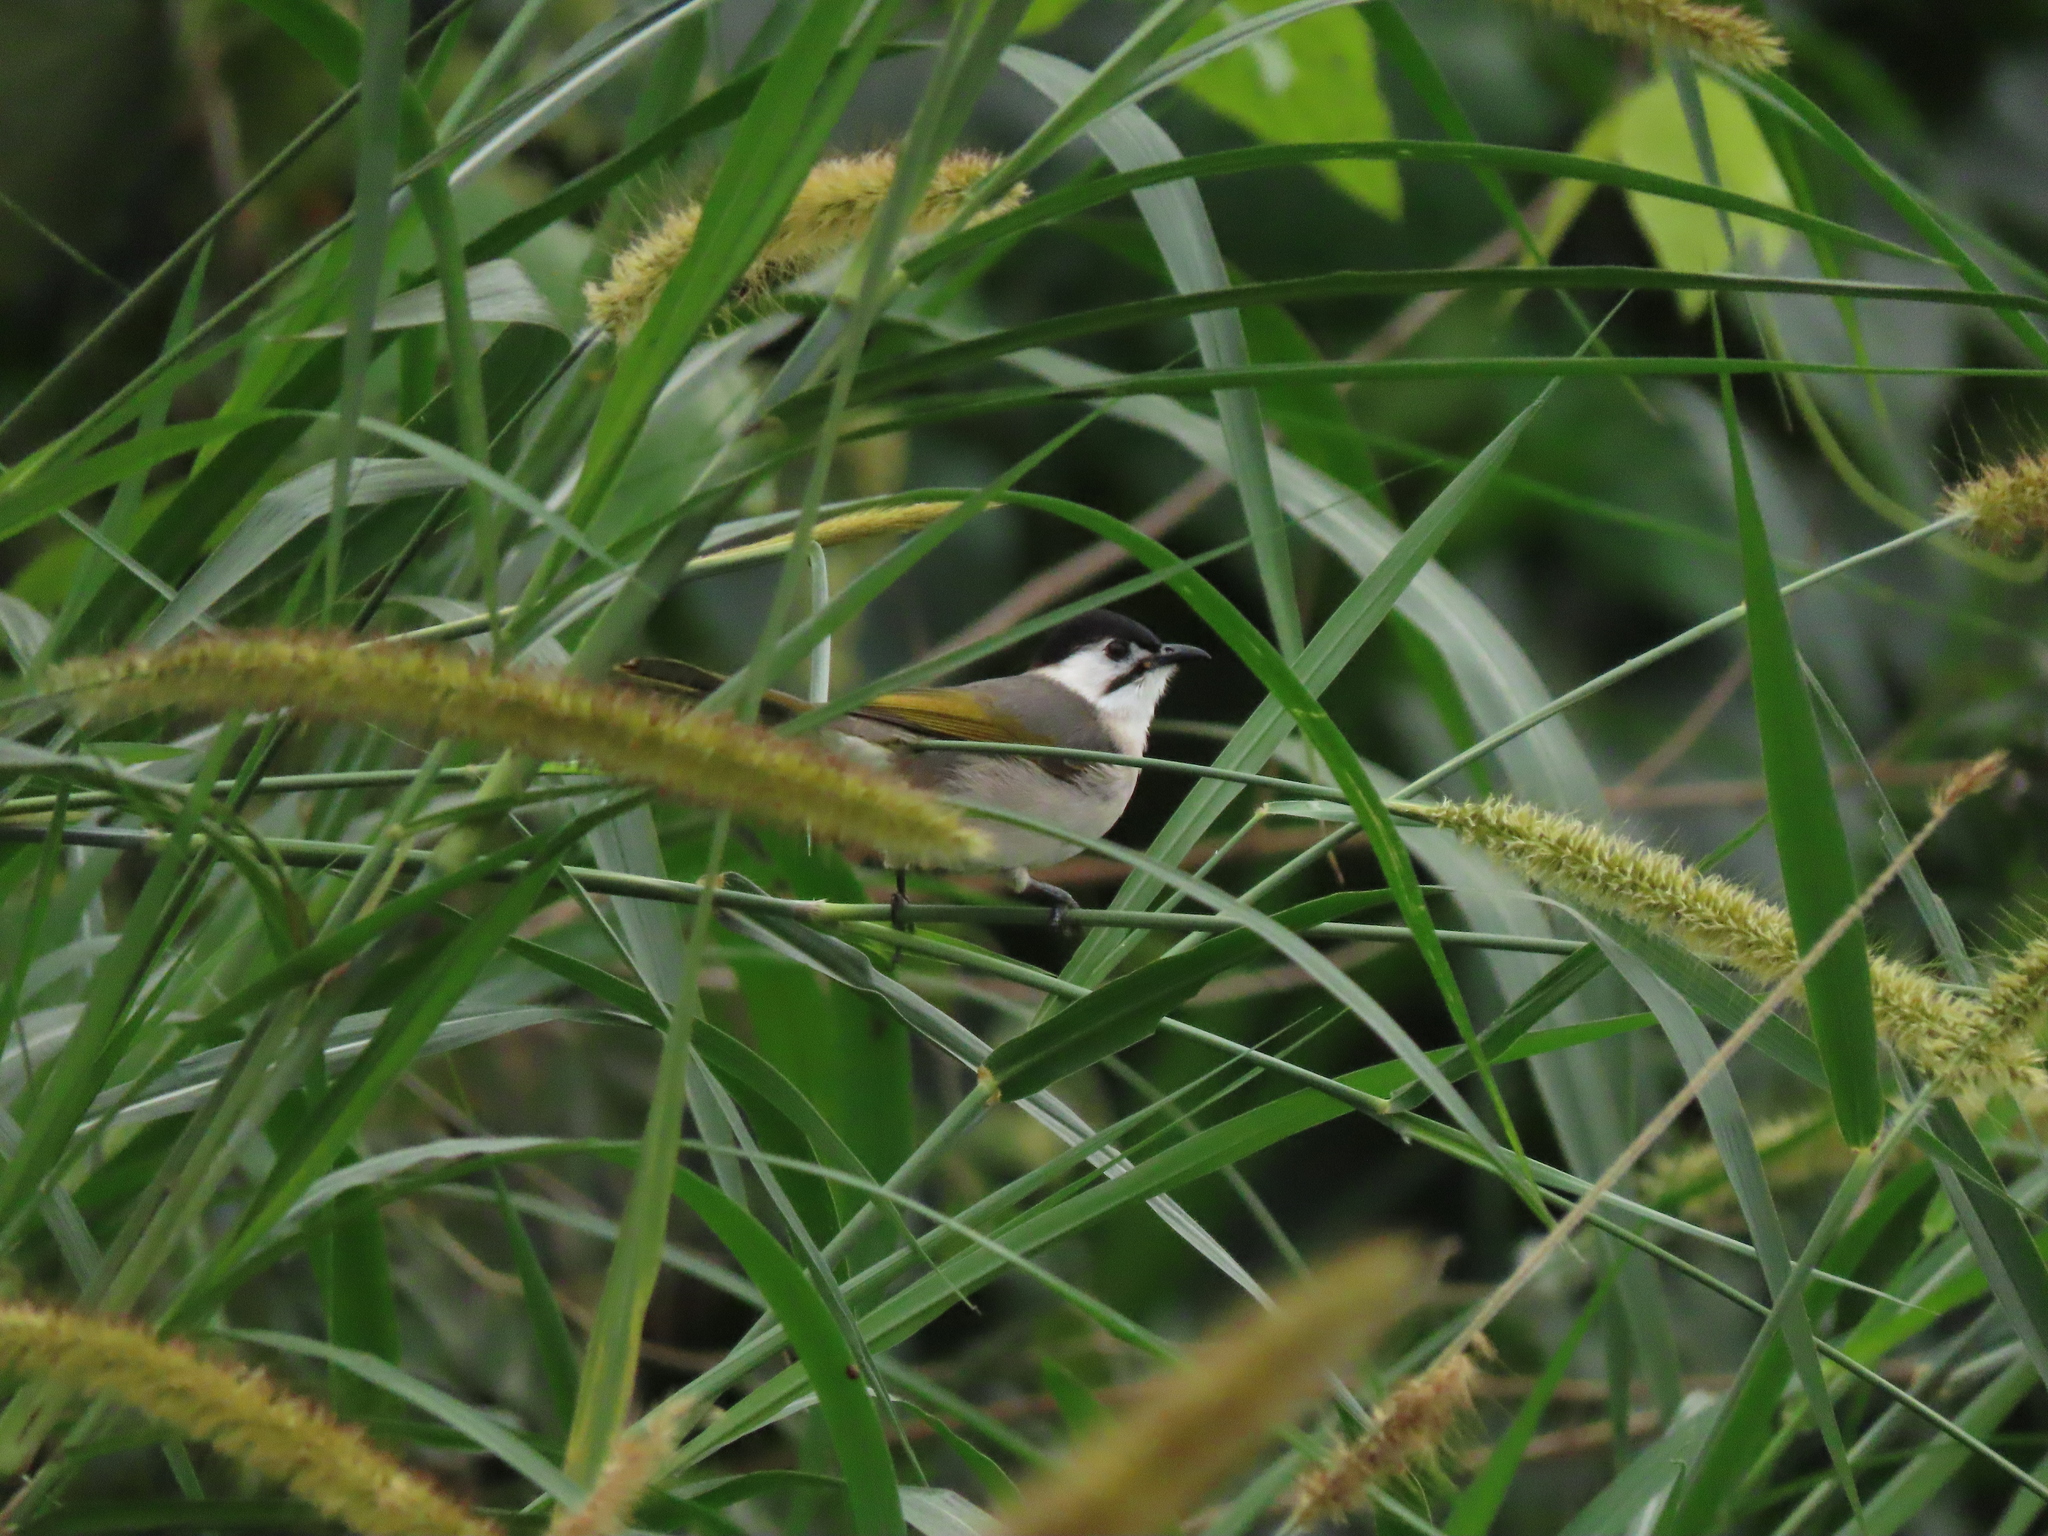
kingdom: Animalia
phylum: Chordata
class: Aves
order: Passeriformes
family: Pycnonotidae
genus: Pycnonotus
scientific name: Pycnonotus taivanus
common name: Styan's bulbul
